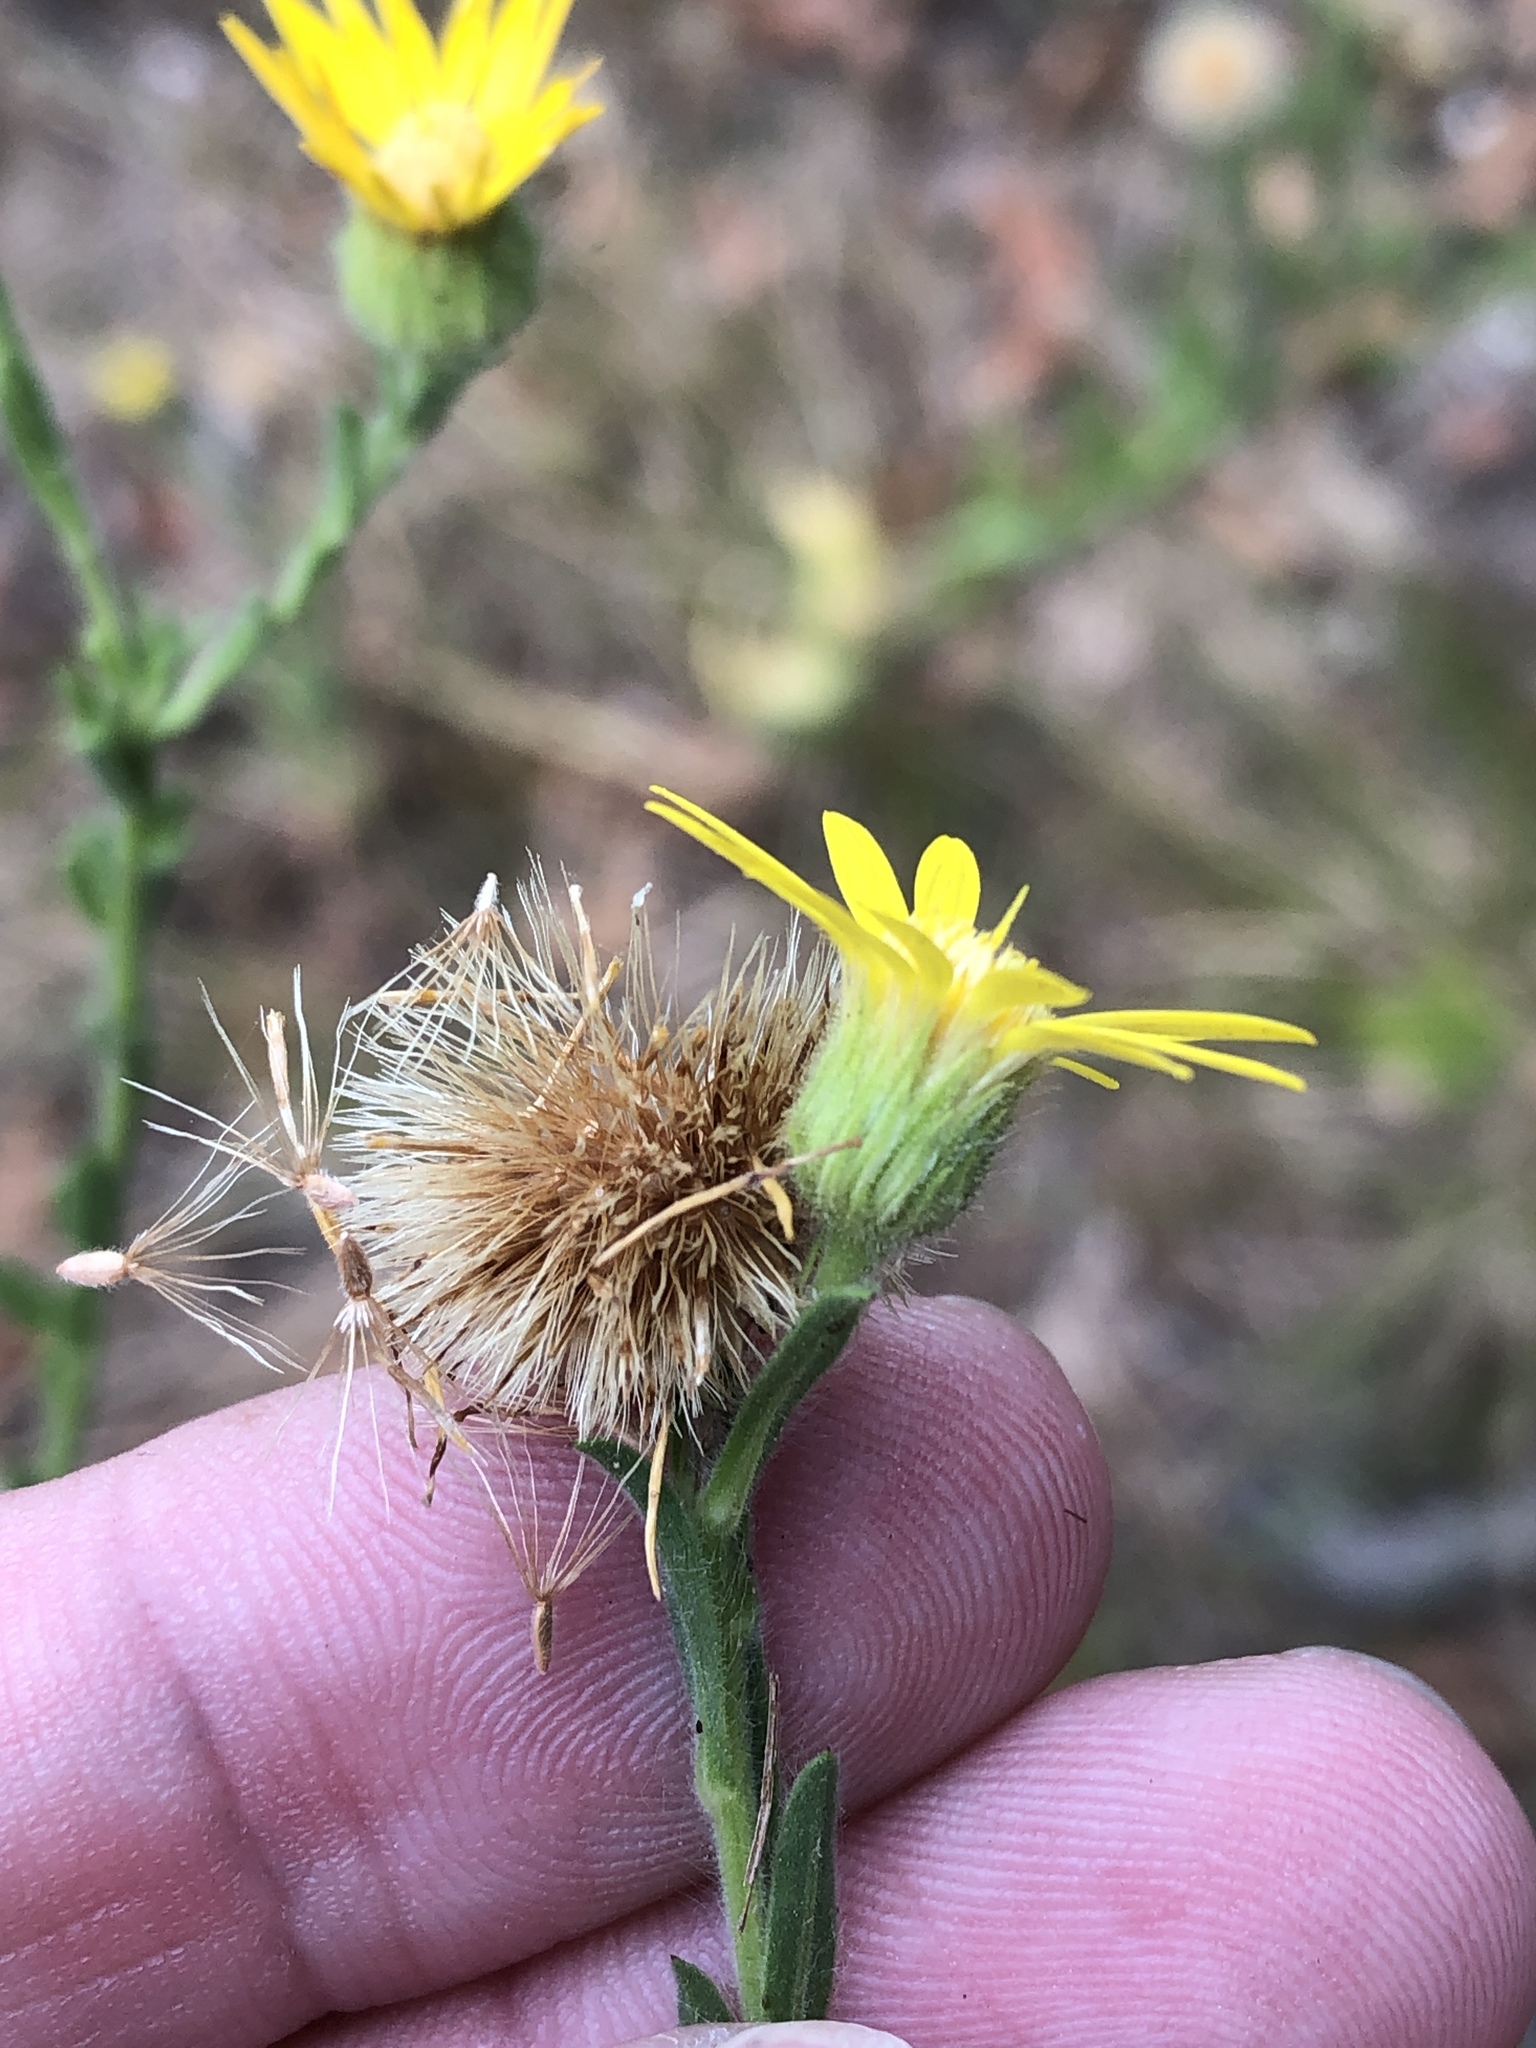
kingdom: Plantae
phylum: Tracheophyta
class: Magnoliopsida
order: Asterales
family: Asteraceae
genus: Bradburia
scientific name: Bradburia pilosa
